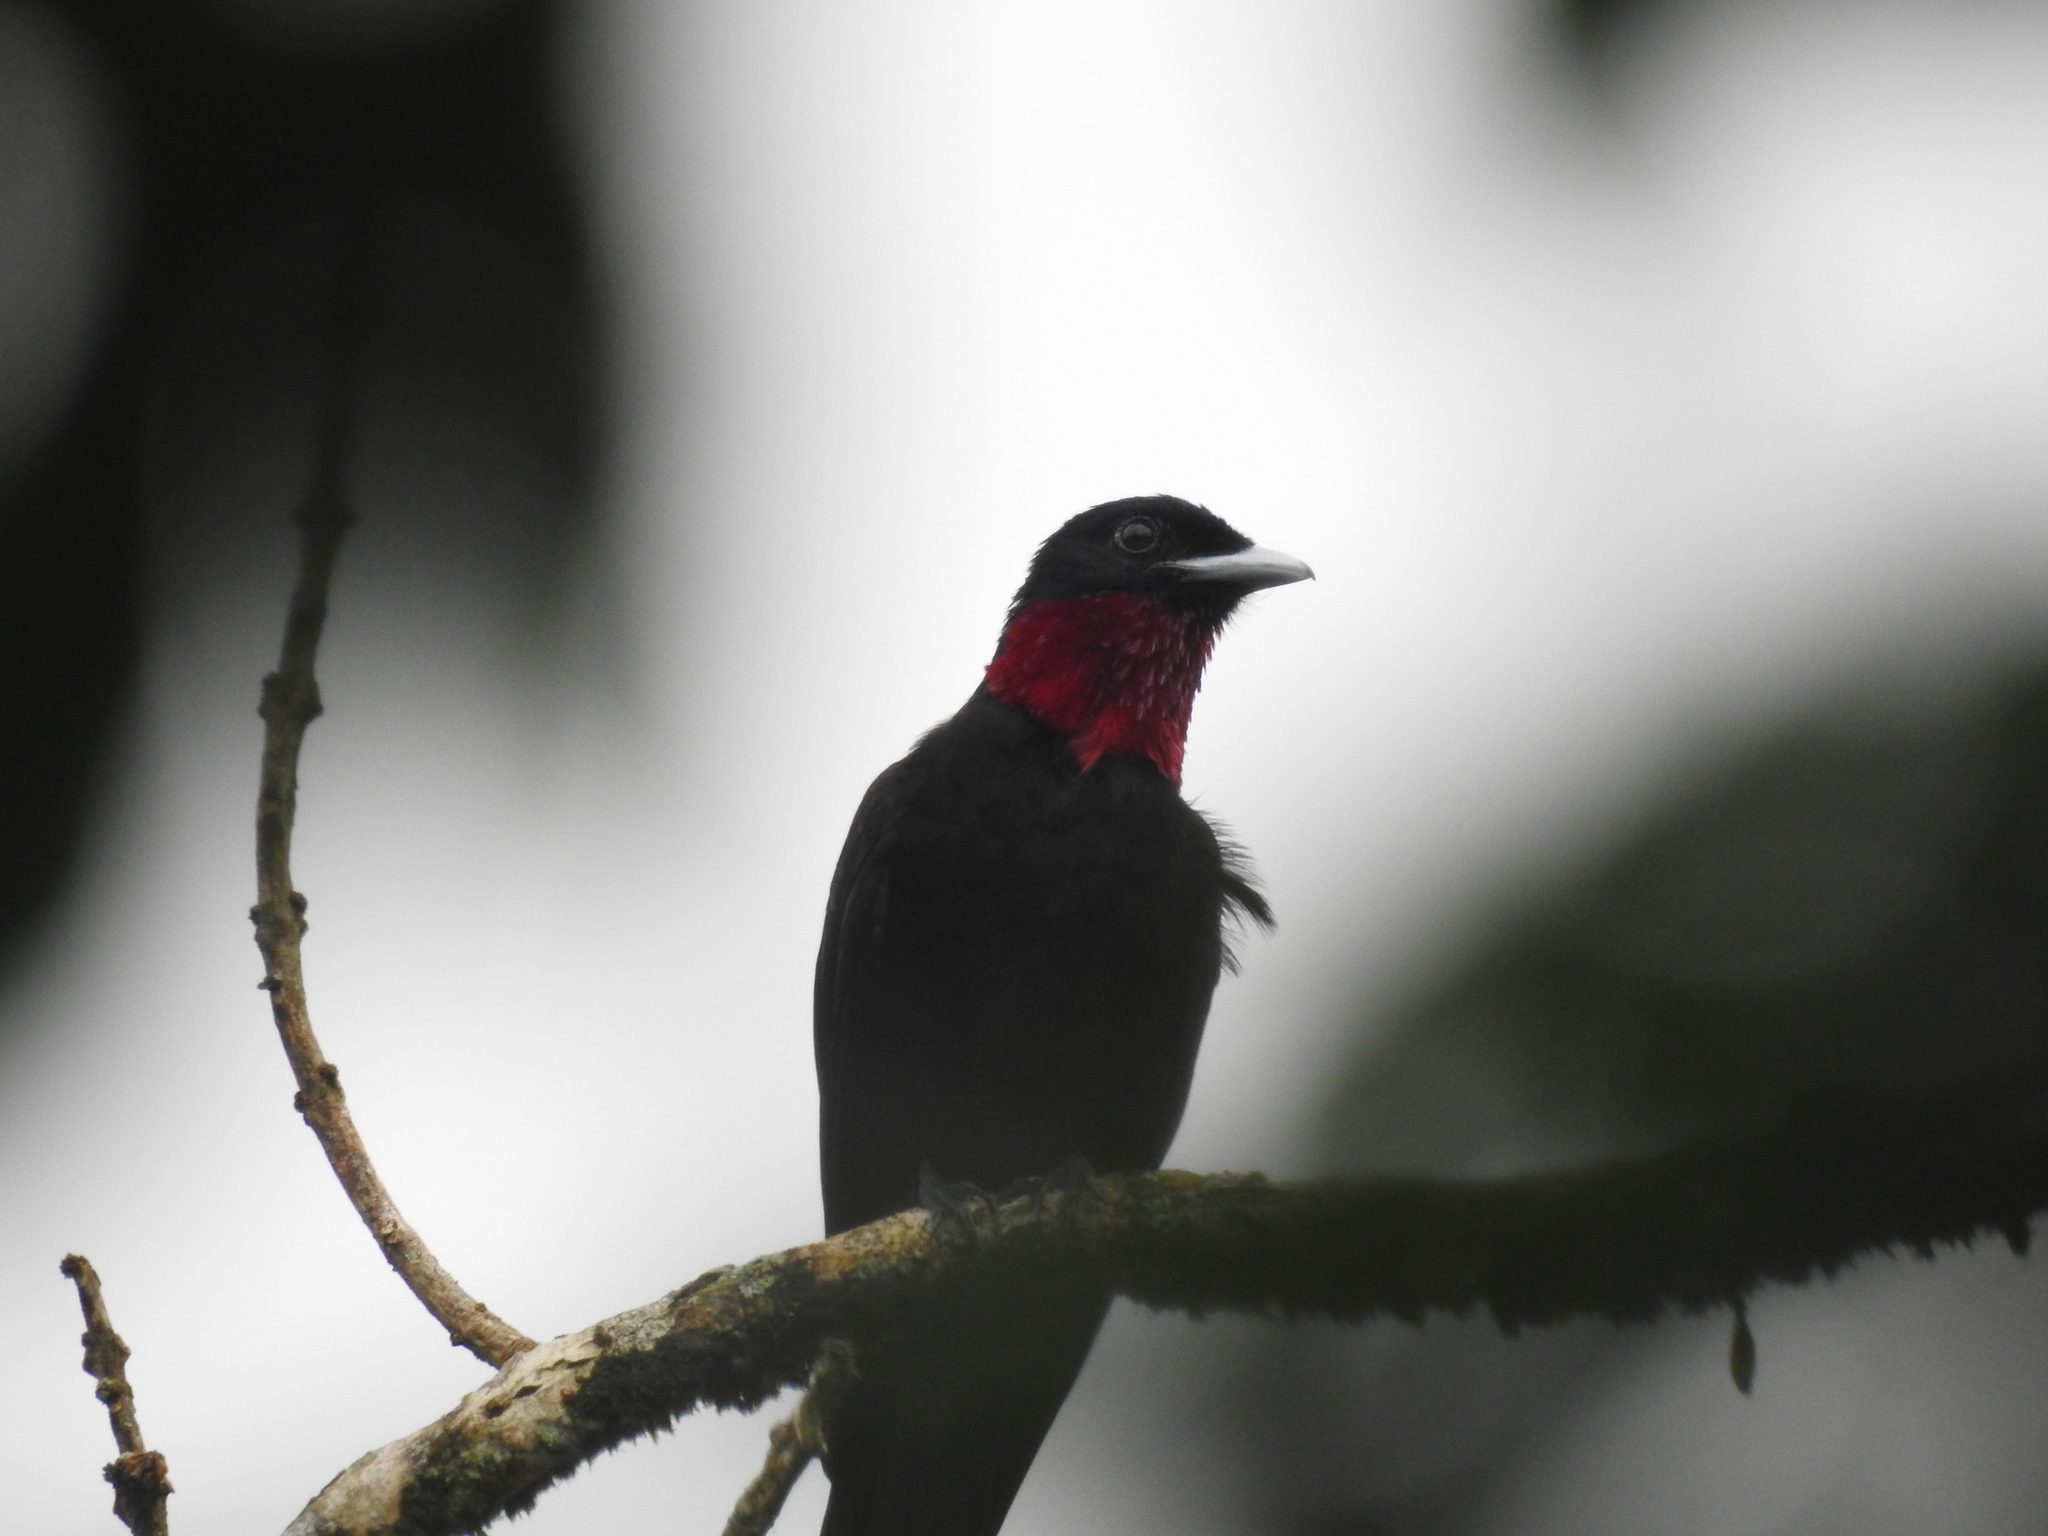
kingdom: Animalia
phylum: Chordata
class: Aves
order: Passeriformes
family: Cotingidae
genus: Querula
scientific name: Querula purpurata
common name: Purple-throated fruitcrow
